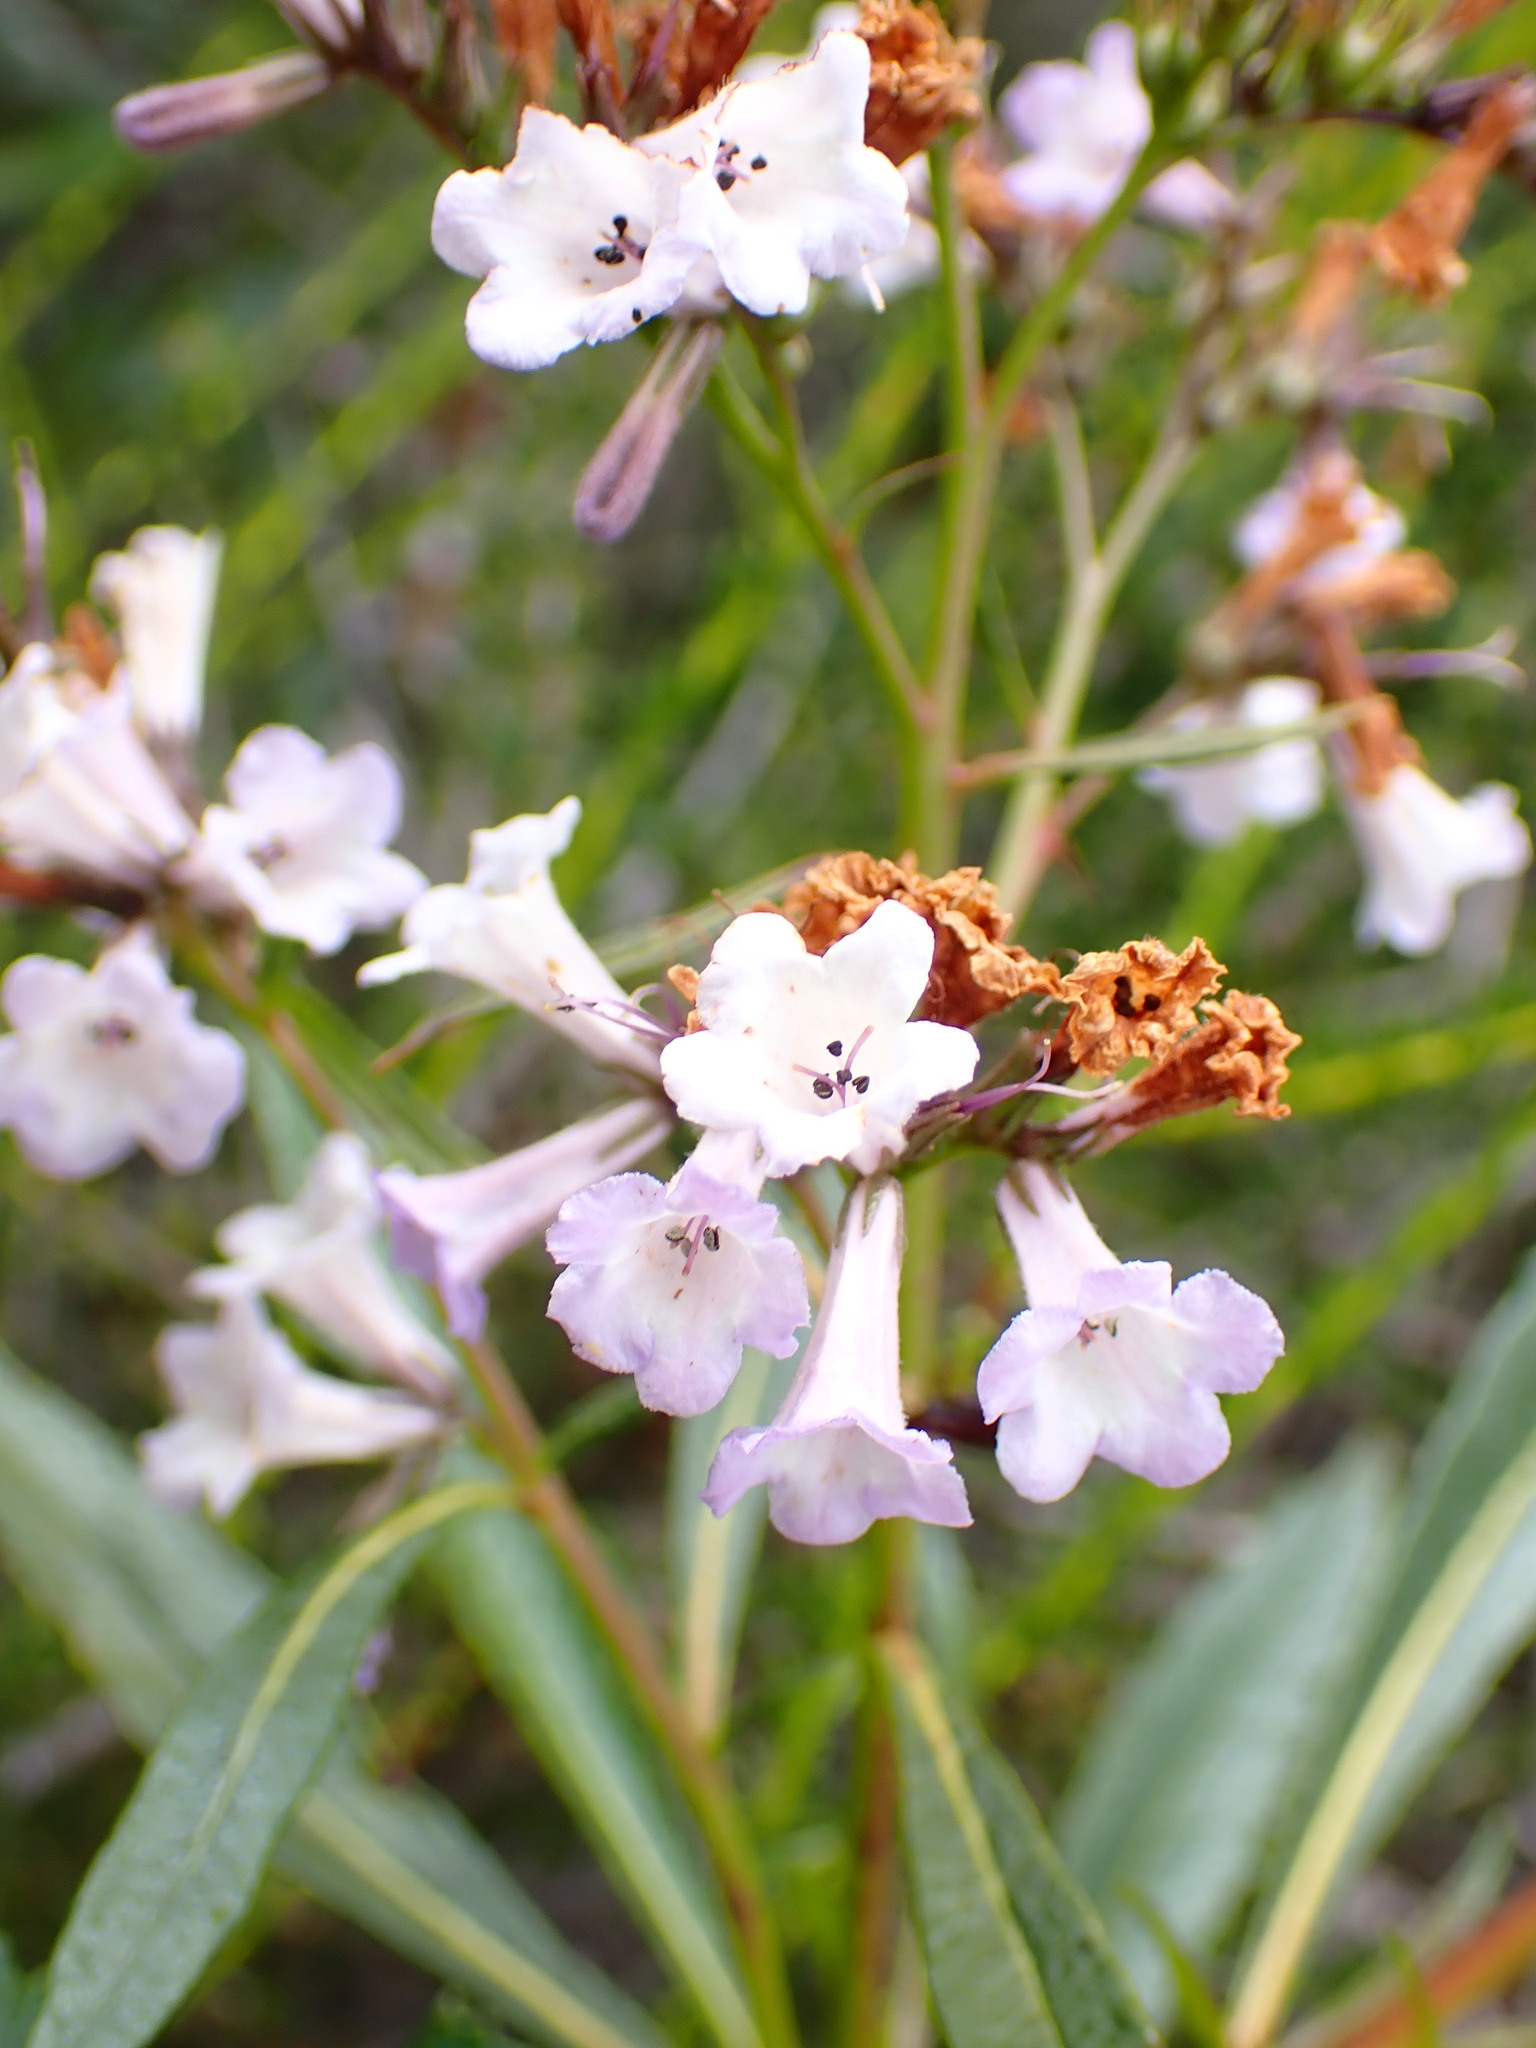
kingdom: Plantae
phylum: Tracheophyta
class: Magnoliopsida
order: Boraginales
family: Namaceae
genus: Eriodictyon
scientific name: Eriodictyon californicum
